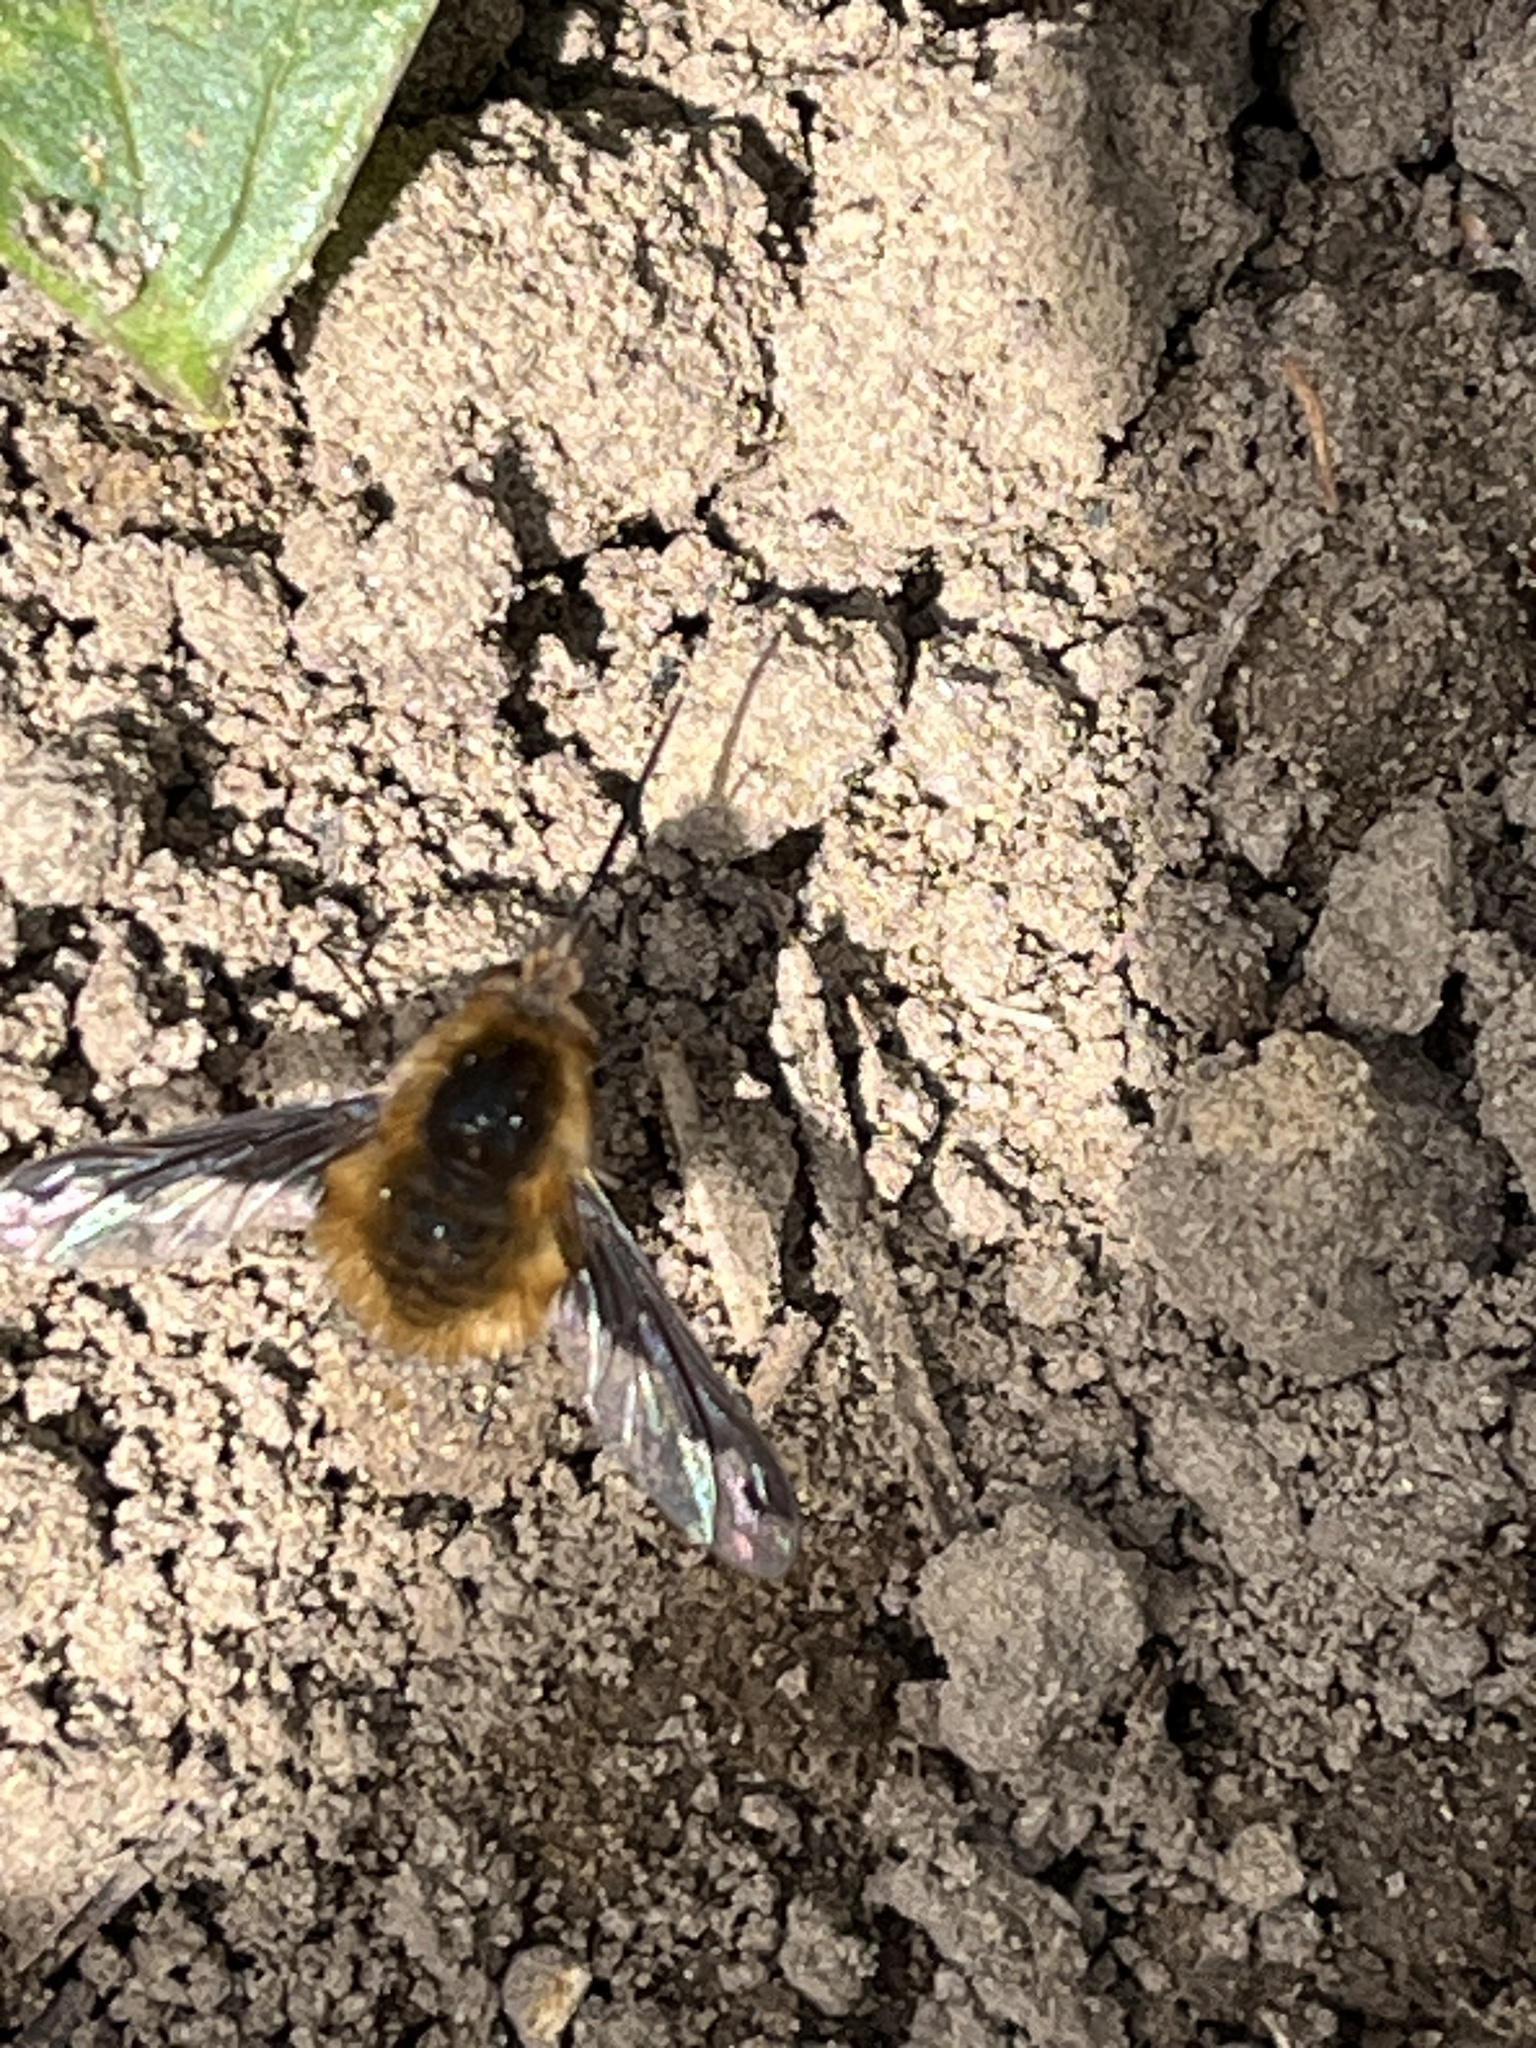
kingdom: Animalia
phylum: Arthropoda
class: Insecta
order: Diptera
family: Bombyliidae
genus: Bombylius
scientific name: Bombylius major
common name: Bee fly
